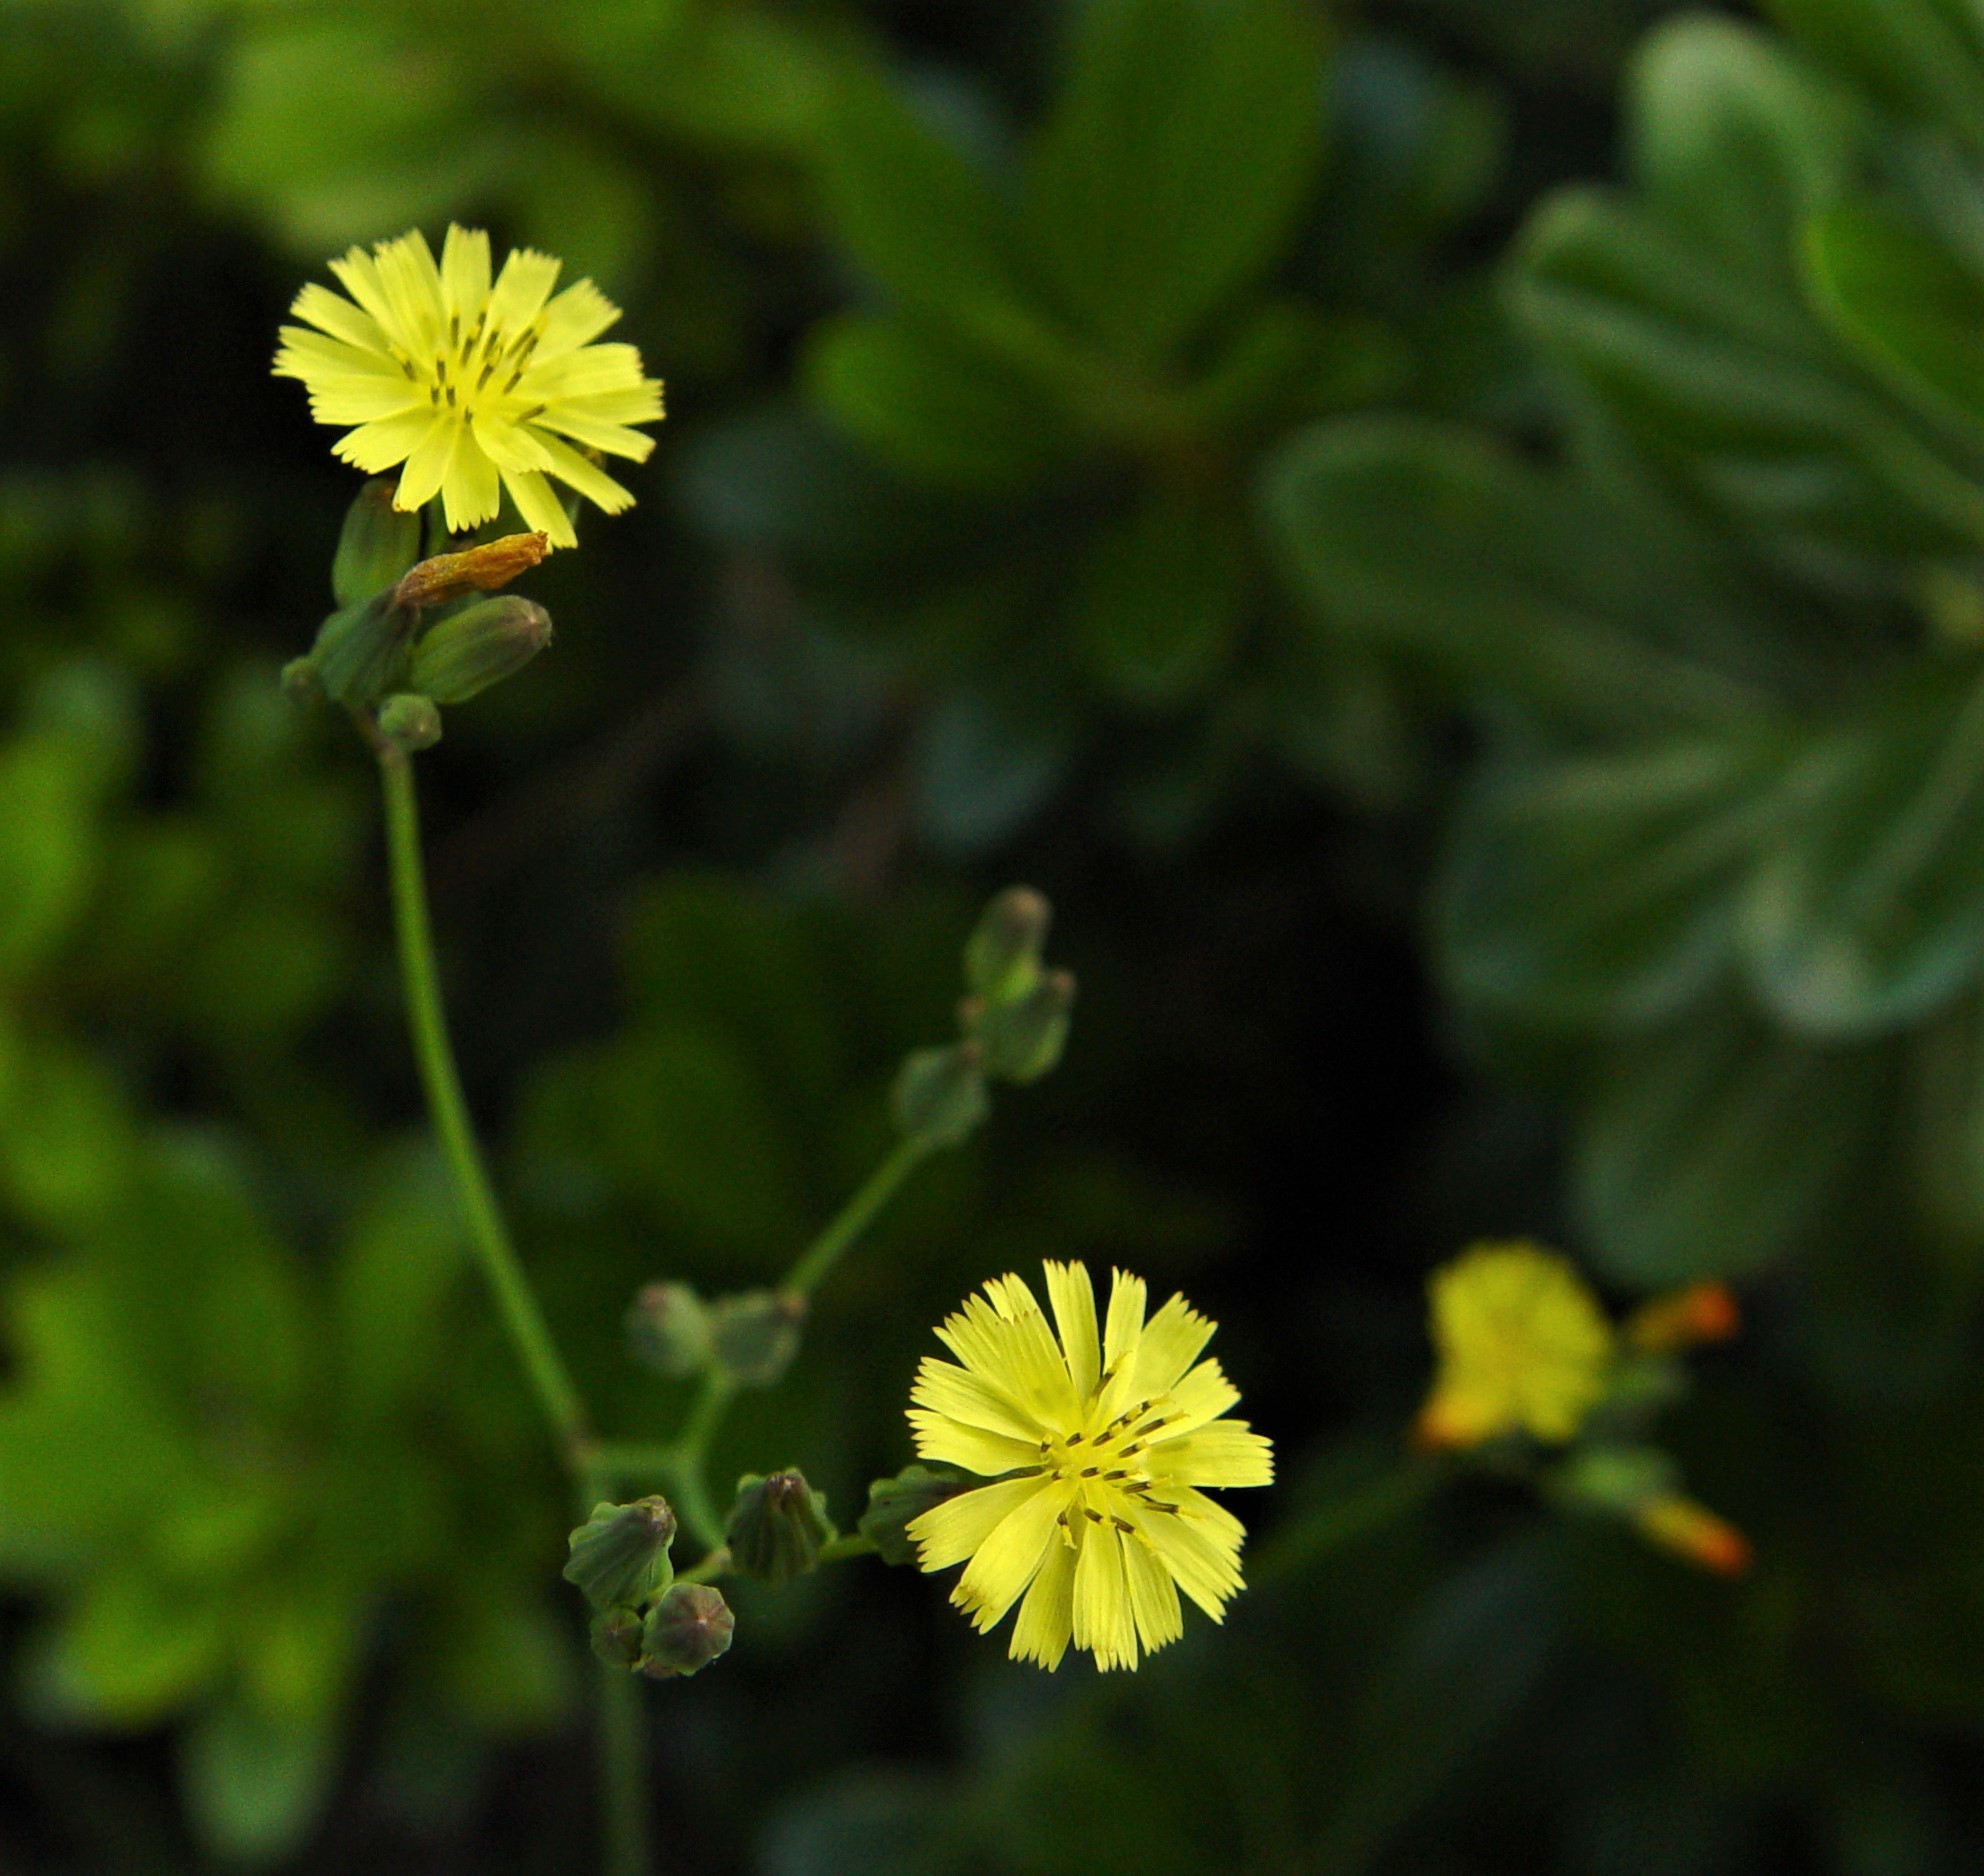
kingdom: Plantae
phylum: Tracheophyta
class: Magnoliopsida
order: Asterales
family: Asteraceae
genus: Youngia
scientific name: Youngia japonica
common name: Oriental false hawksbeard
